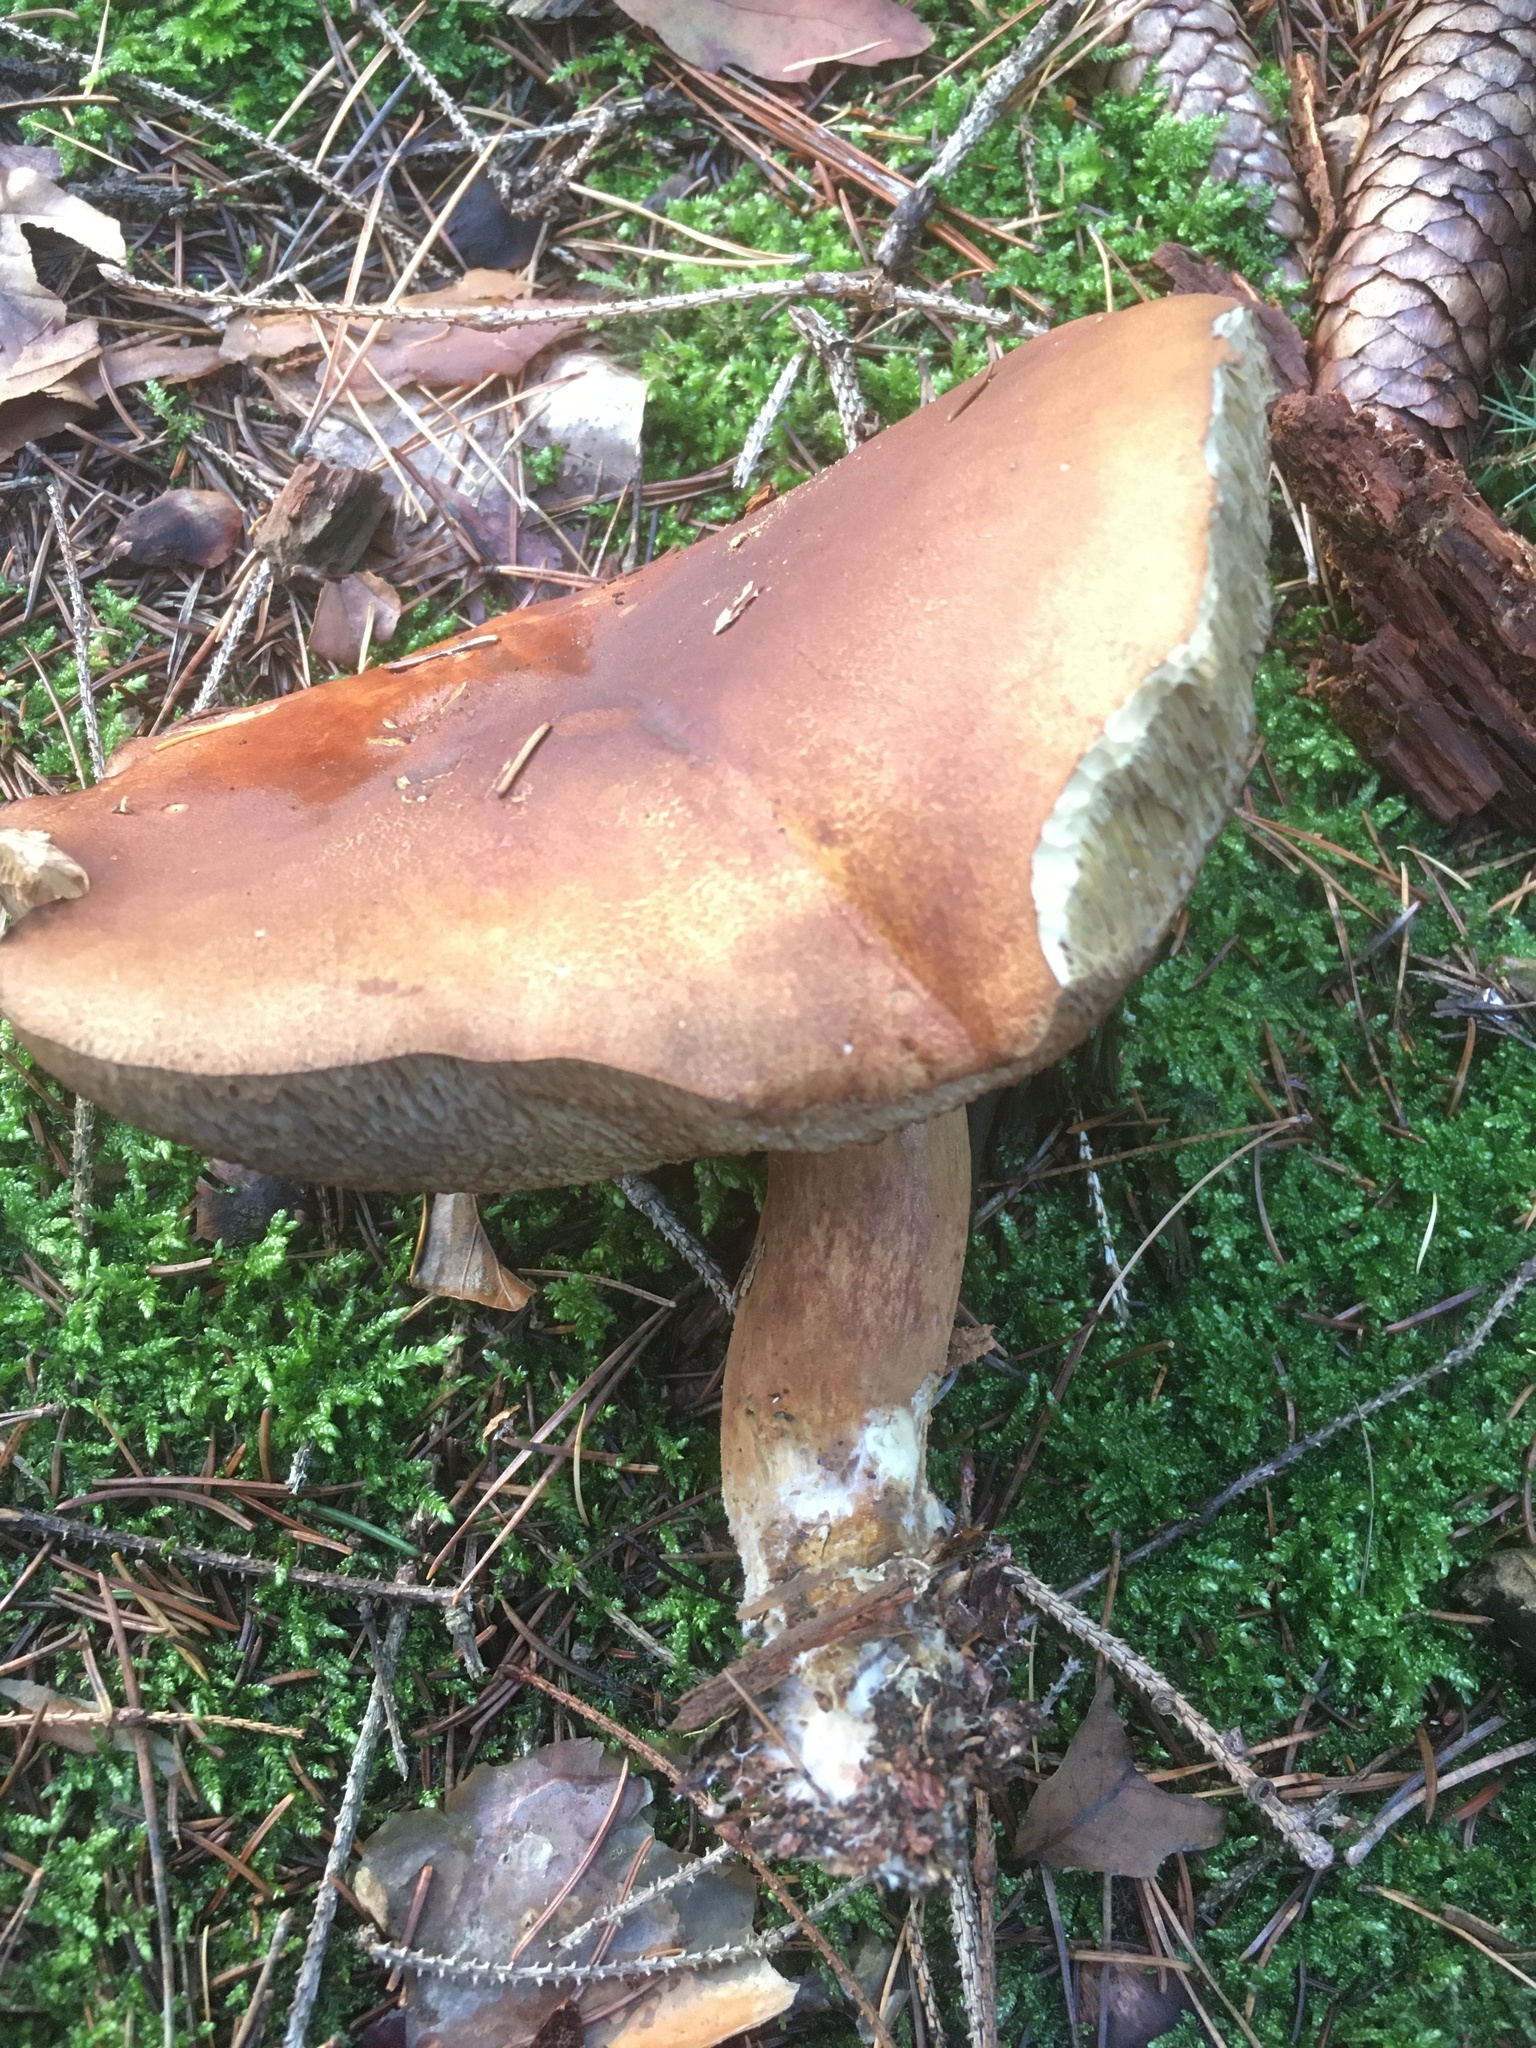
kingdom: Fungi
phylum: Basidiomycota
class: Agaricomycetes
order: Boletales
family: Boletaceae
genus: Imleria
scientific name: Imleria badia
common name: Bay bolete
